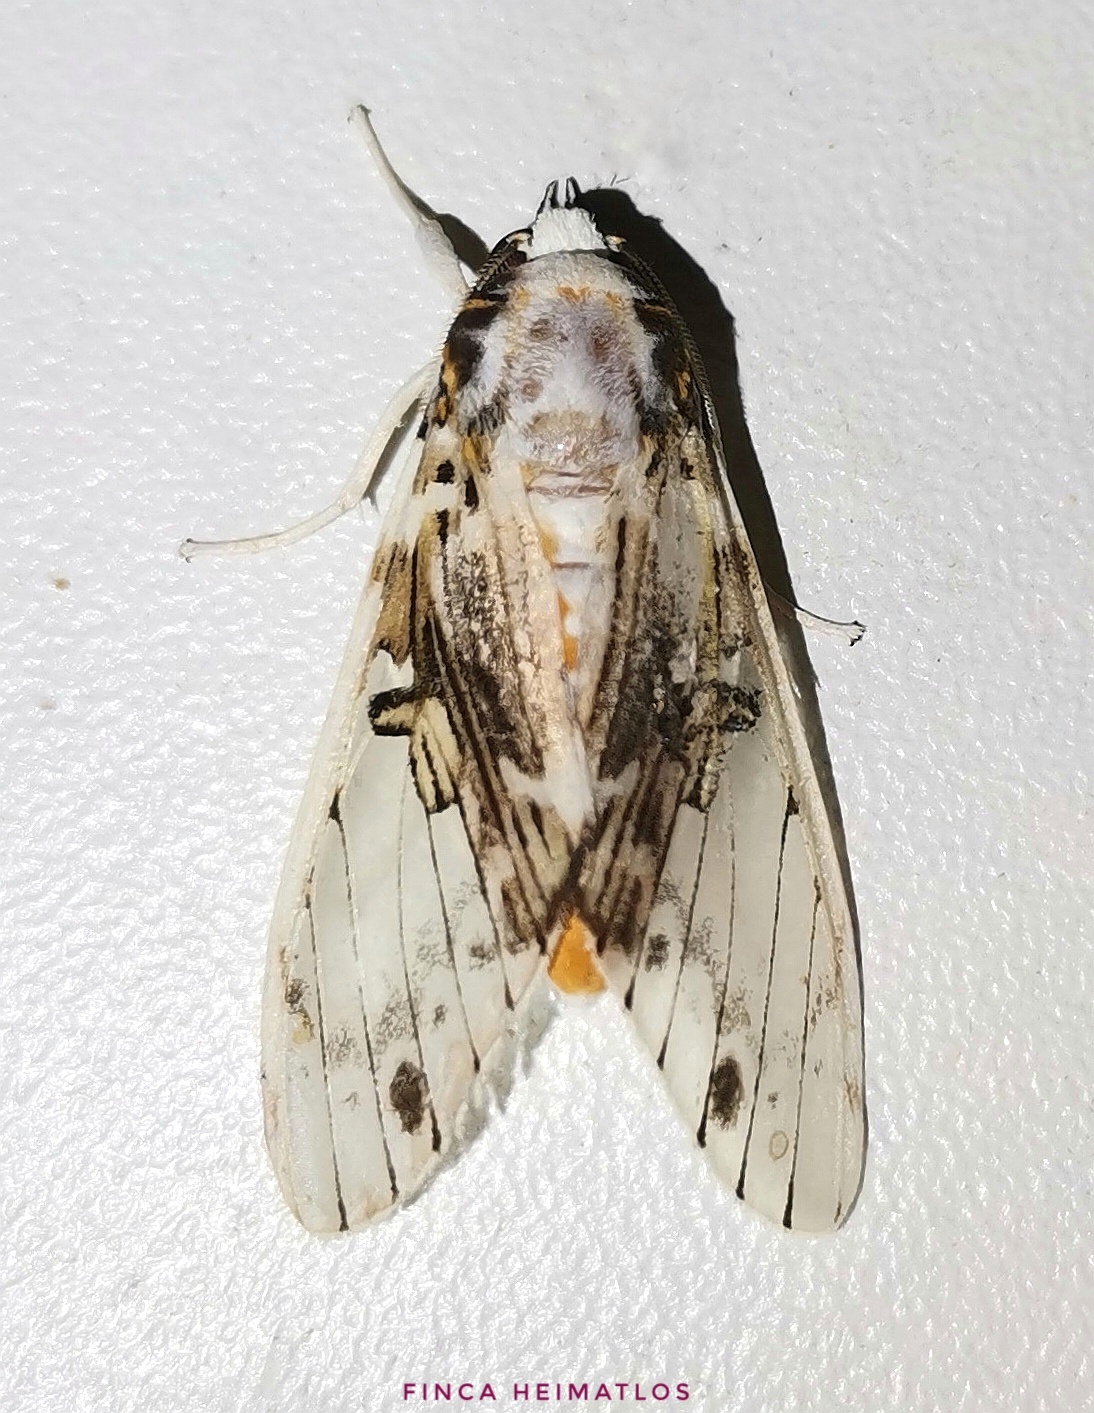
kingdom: Animalia
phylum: Arthropoda
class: Insecta
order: Lepidoptera
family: Erebidae
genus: Idalus
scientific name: Idalus intermedia
